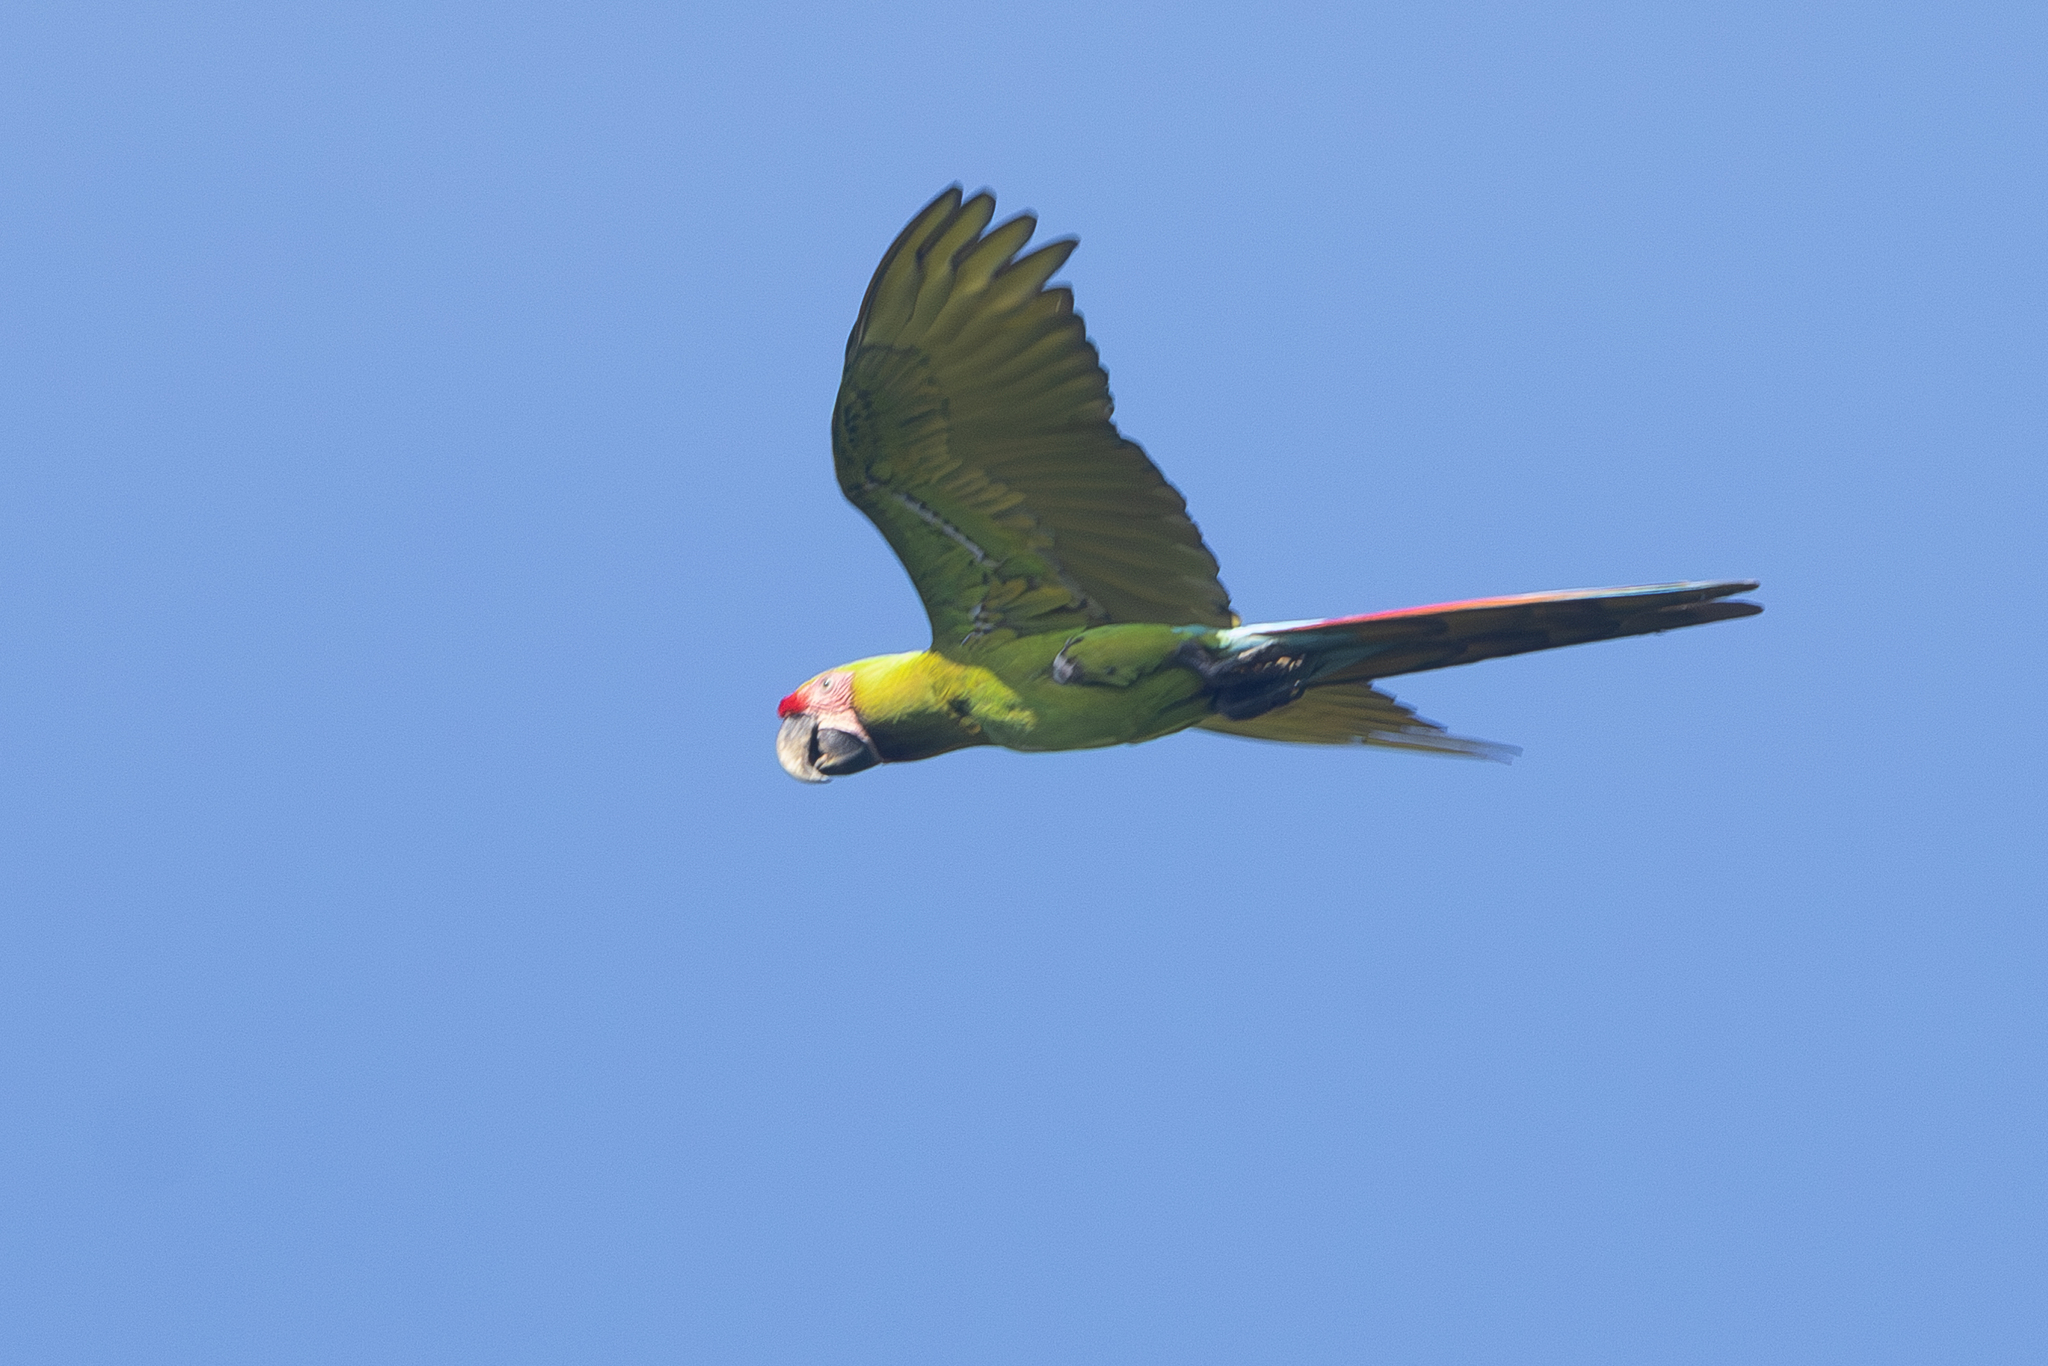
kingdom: Animalia
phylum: Chordata
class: Aves
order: Psittaciformes
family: Psittacidae
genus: Ara
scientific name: Ara ambiguus
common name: Great green macaw
